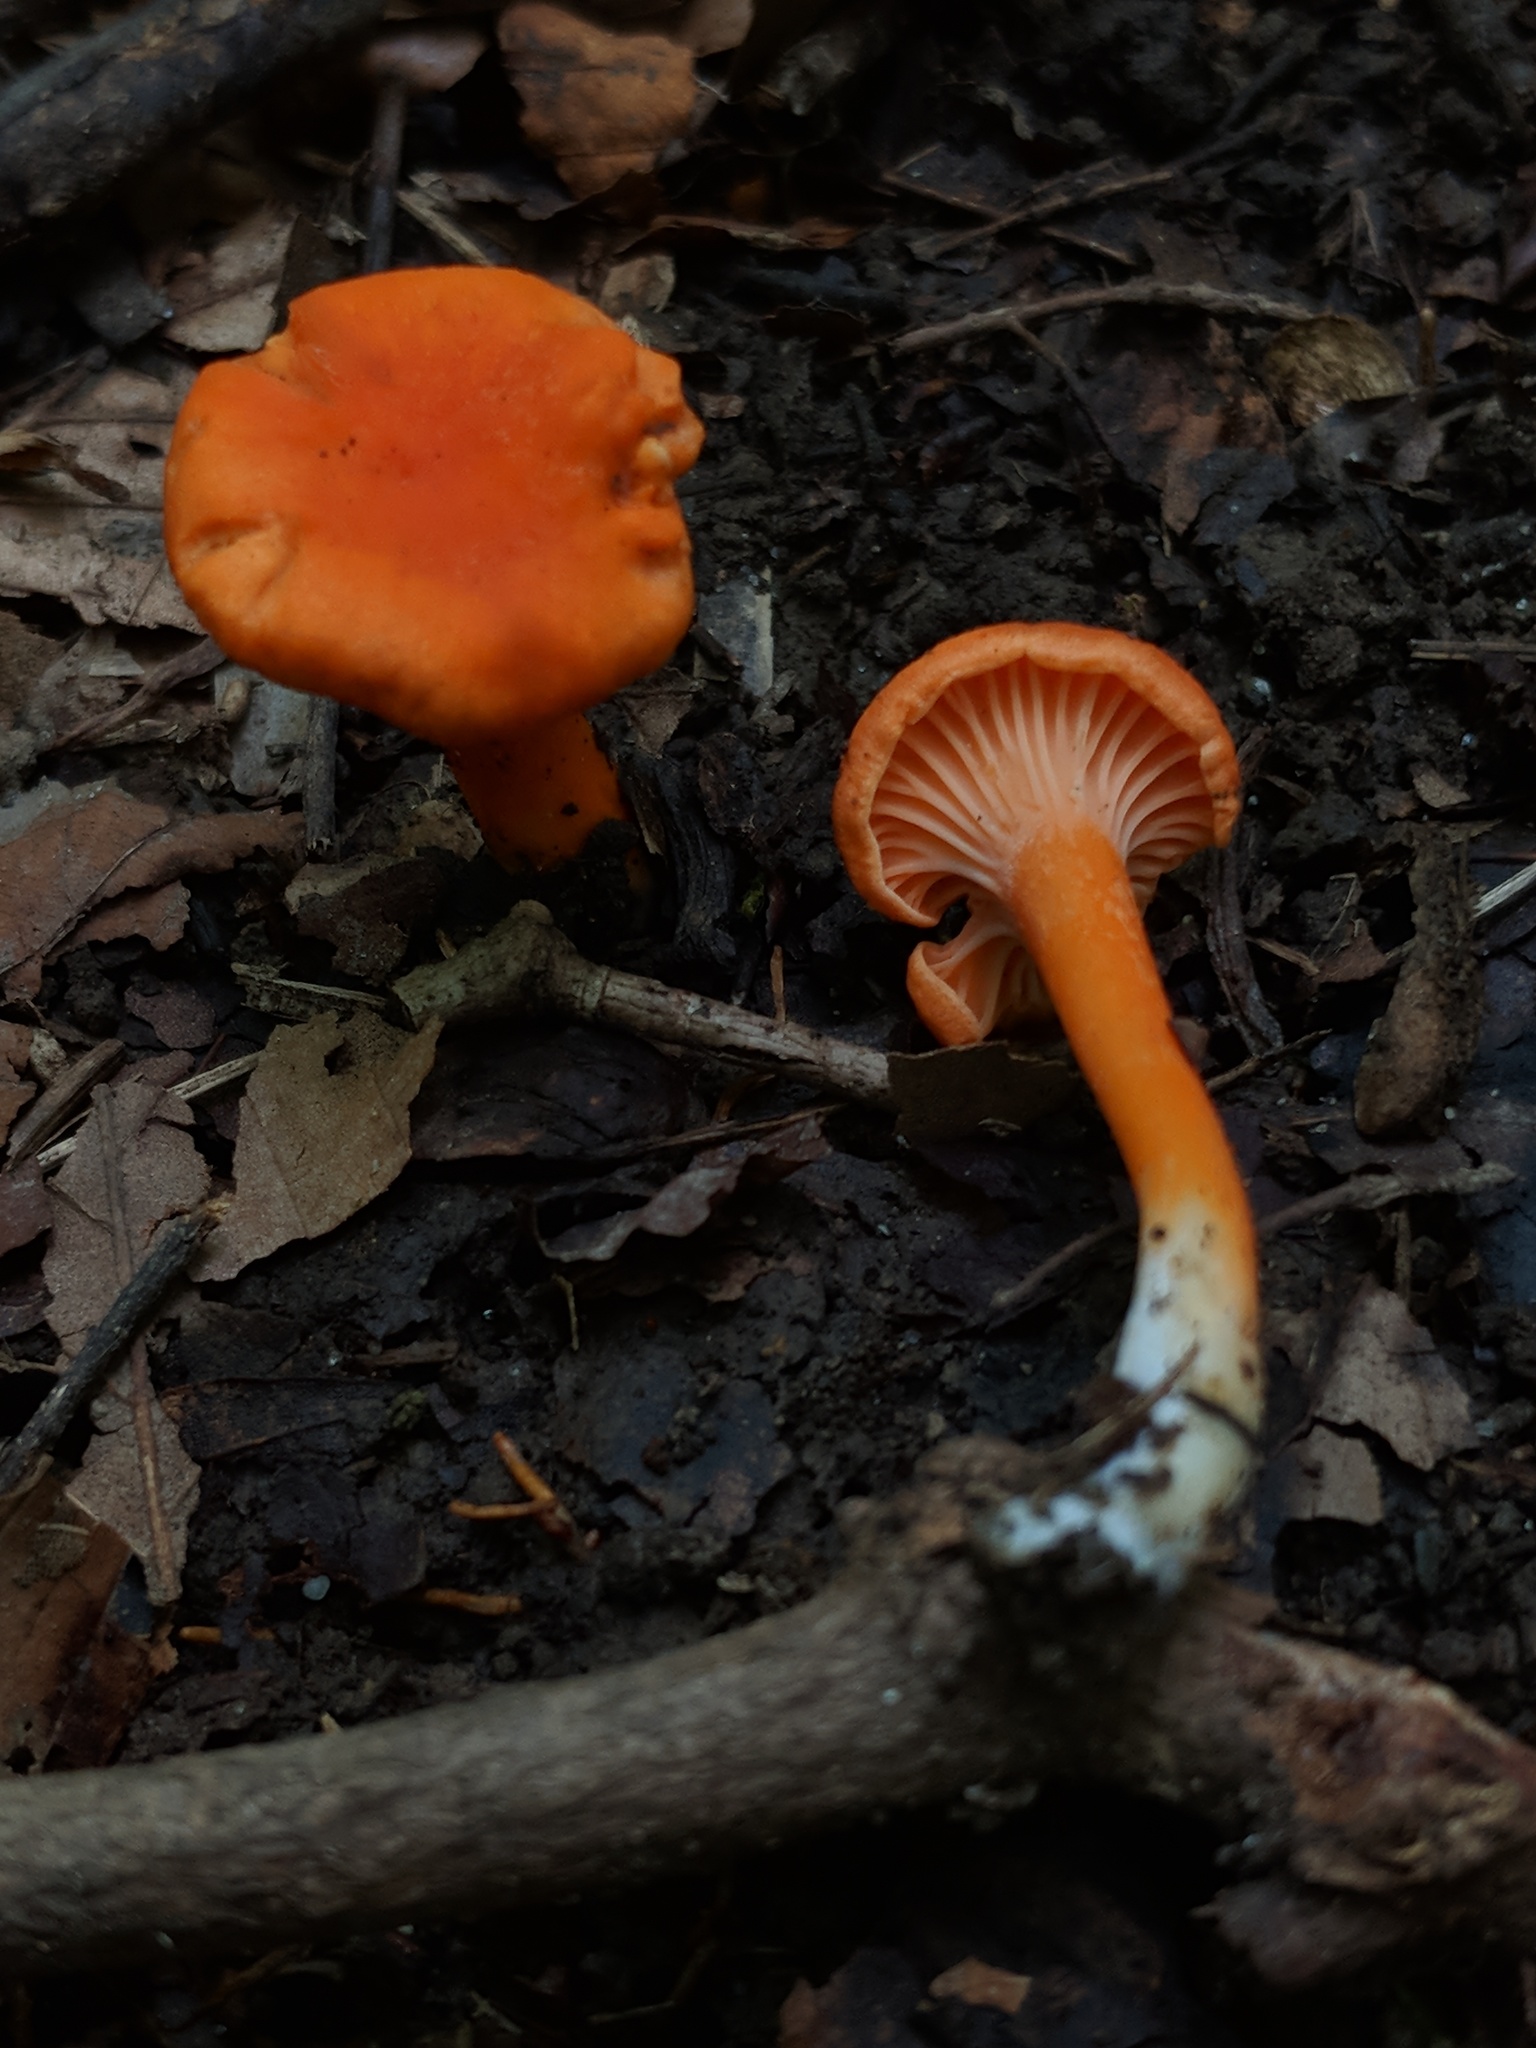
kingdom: Fungi
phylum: Basidiomycota
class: Agaricomycetes
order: Cantharellales
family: Hydnaceae
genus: Cantharellus
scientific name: Cantharellus cinnabarinus
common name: Cinnabar chanterelle
